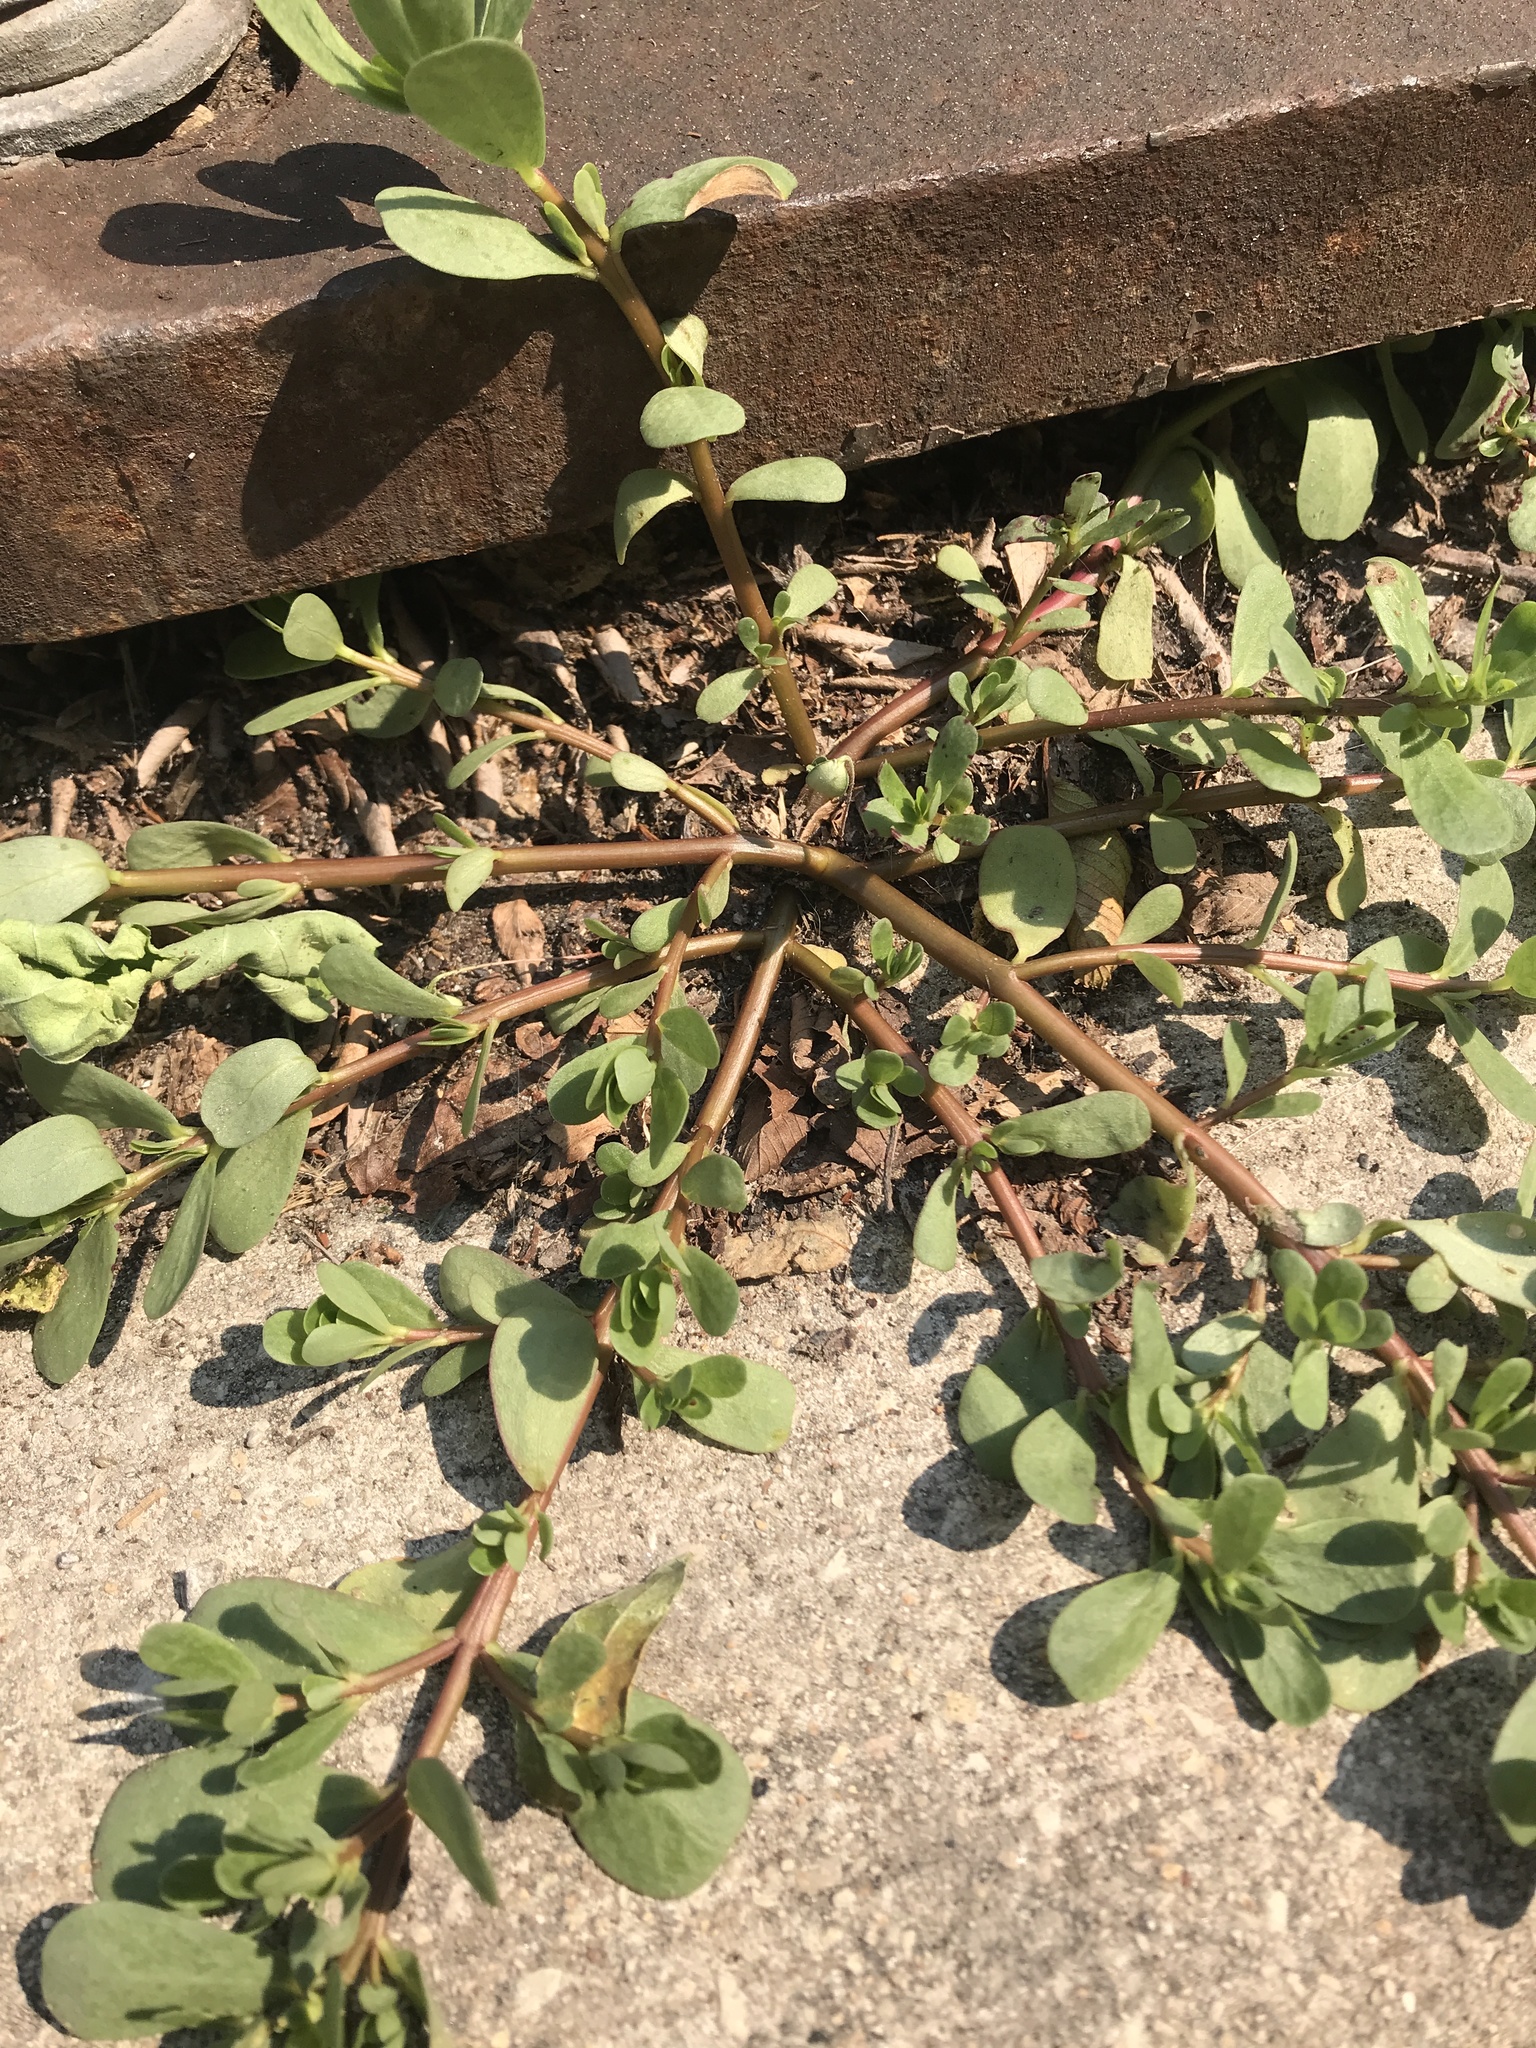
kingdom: Plantae
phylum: Tracheophyta
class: Magnoliopsida
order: Caryophyllales
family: Portulacaceae
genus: Portulaca
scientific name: Portulaca oleracea
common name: Common purslane
